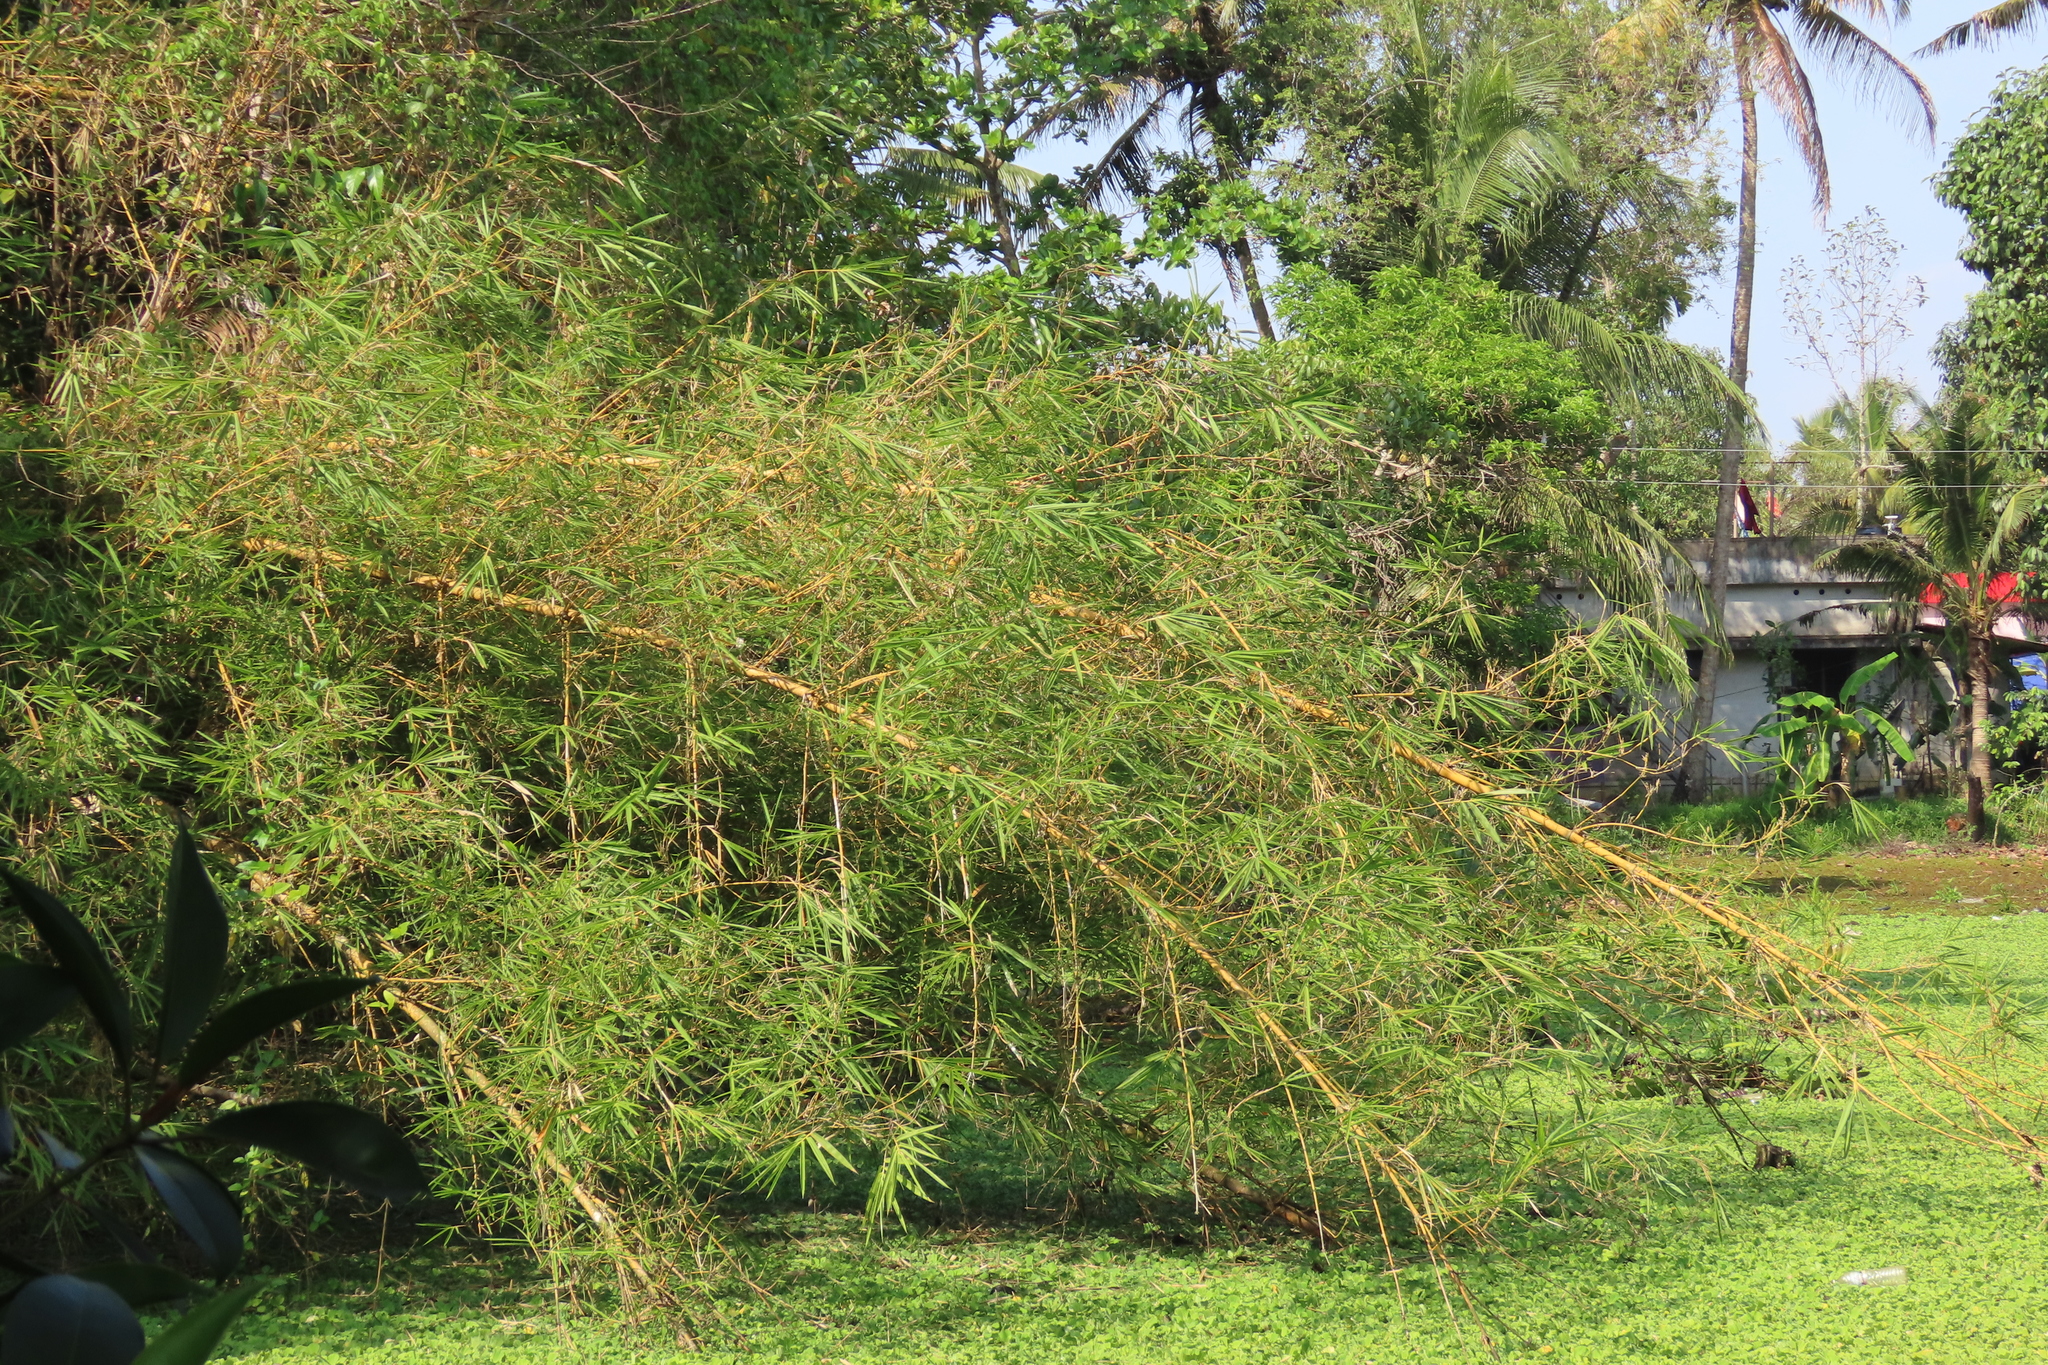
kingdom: Plantae
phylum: Tracheophyta
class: Liliopsida
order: Poales
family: Poaceae
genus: Bambusa
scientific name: Bambusa vulgaris
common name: Common bamboo
